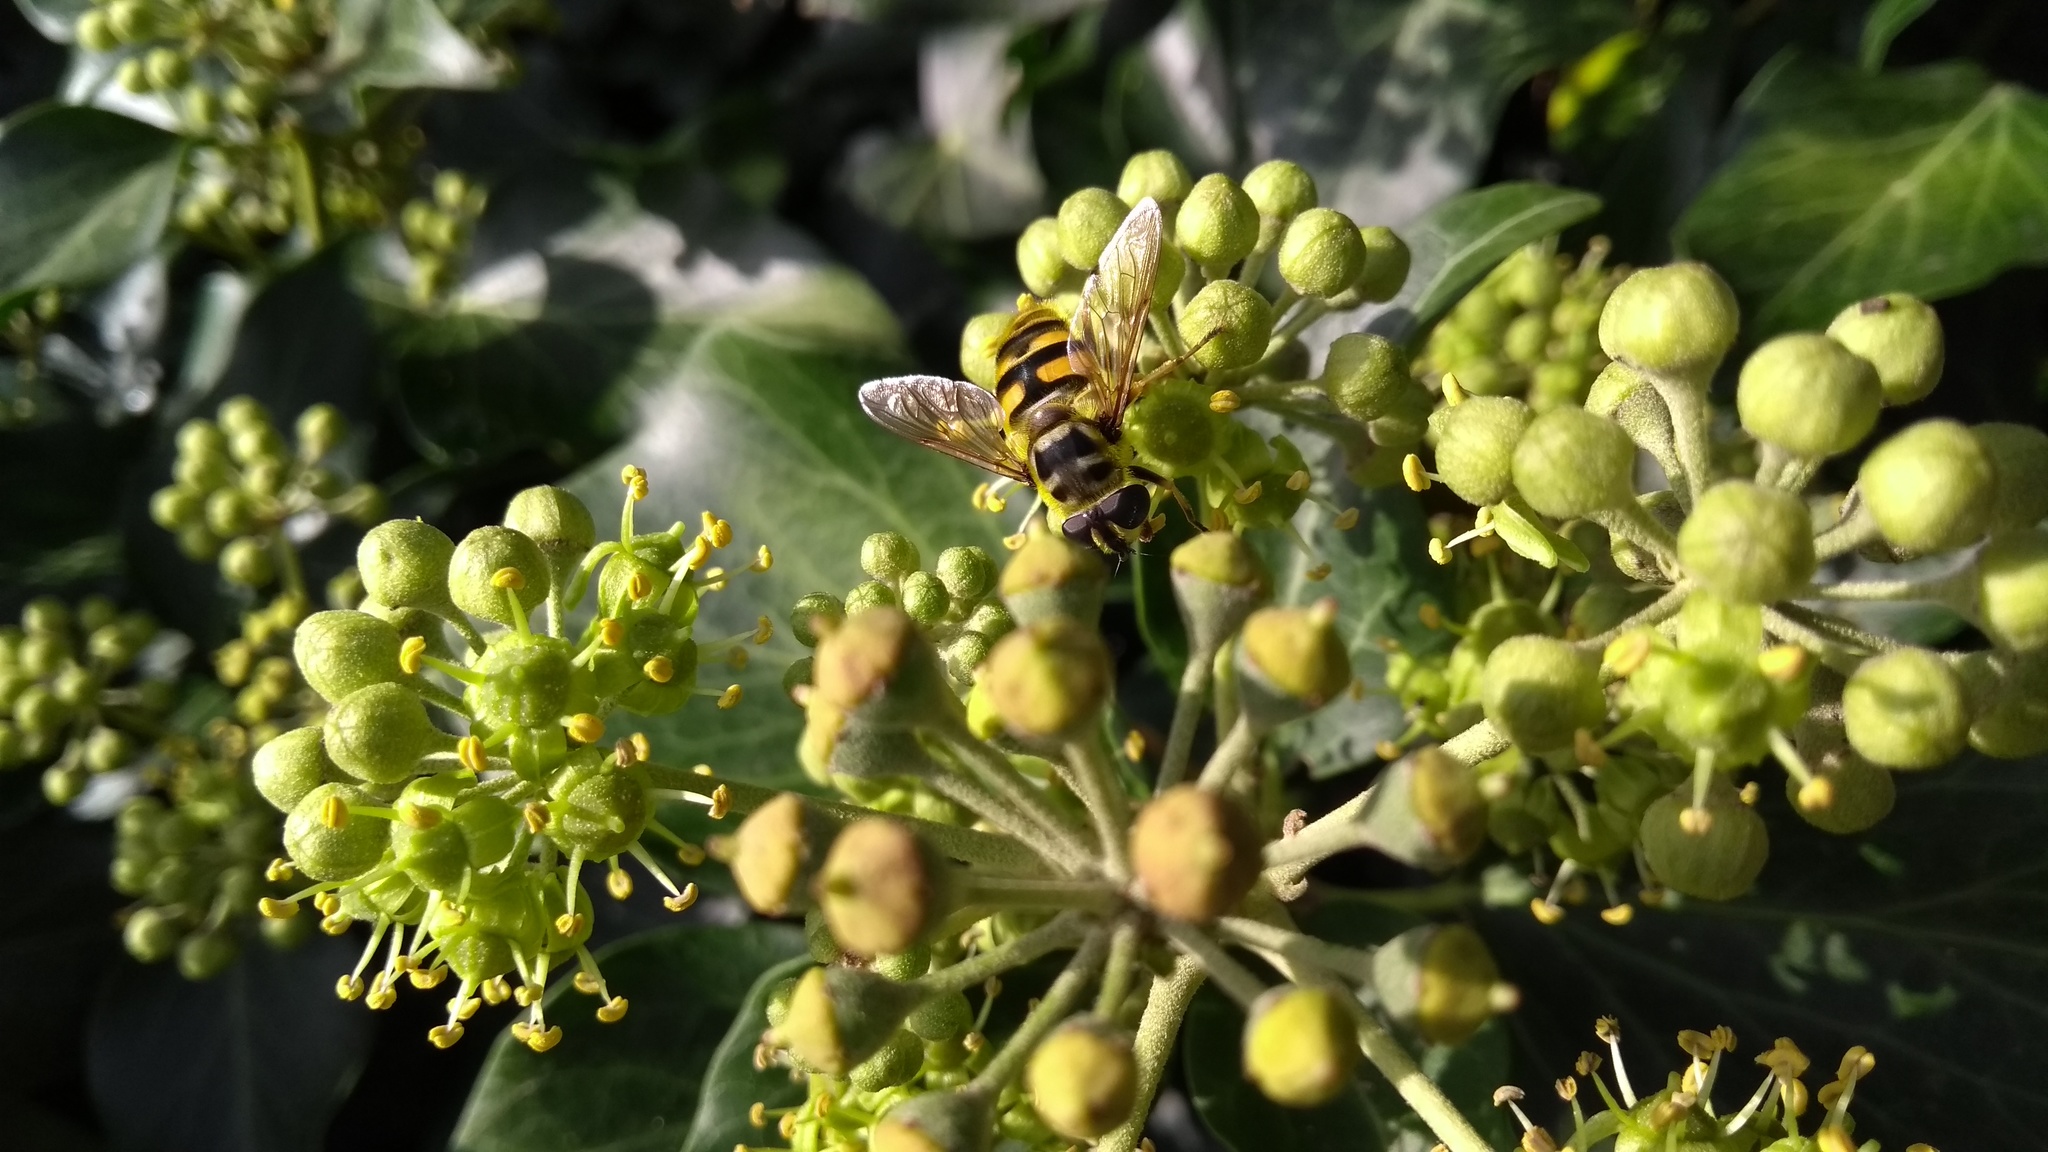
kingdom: Animalia
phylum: Arthropoda
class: Insecta
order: Diptera
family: Syrphidae
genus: Myathropa
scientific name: Myathropa florea
